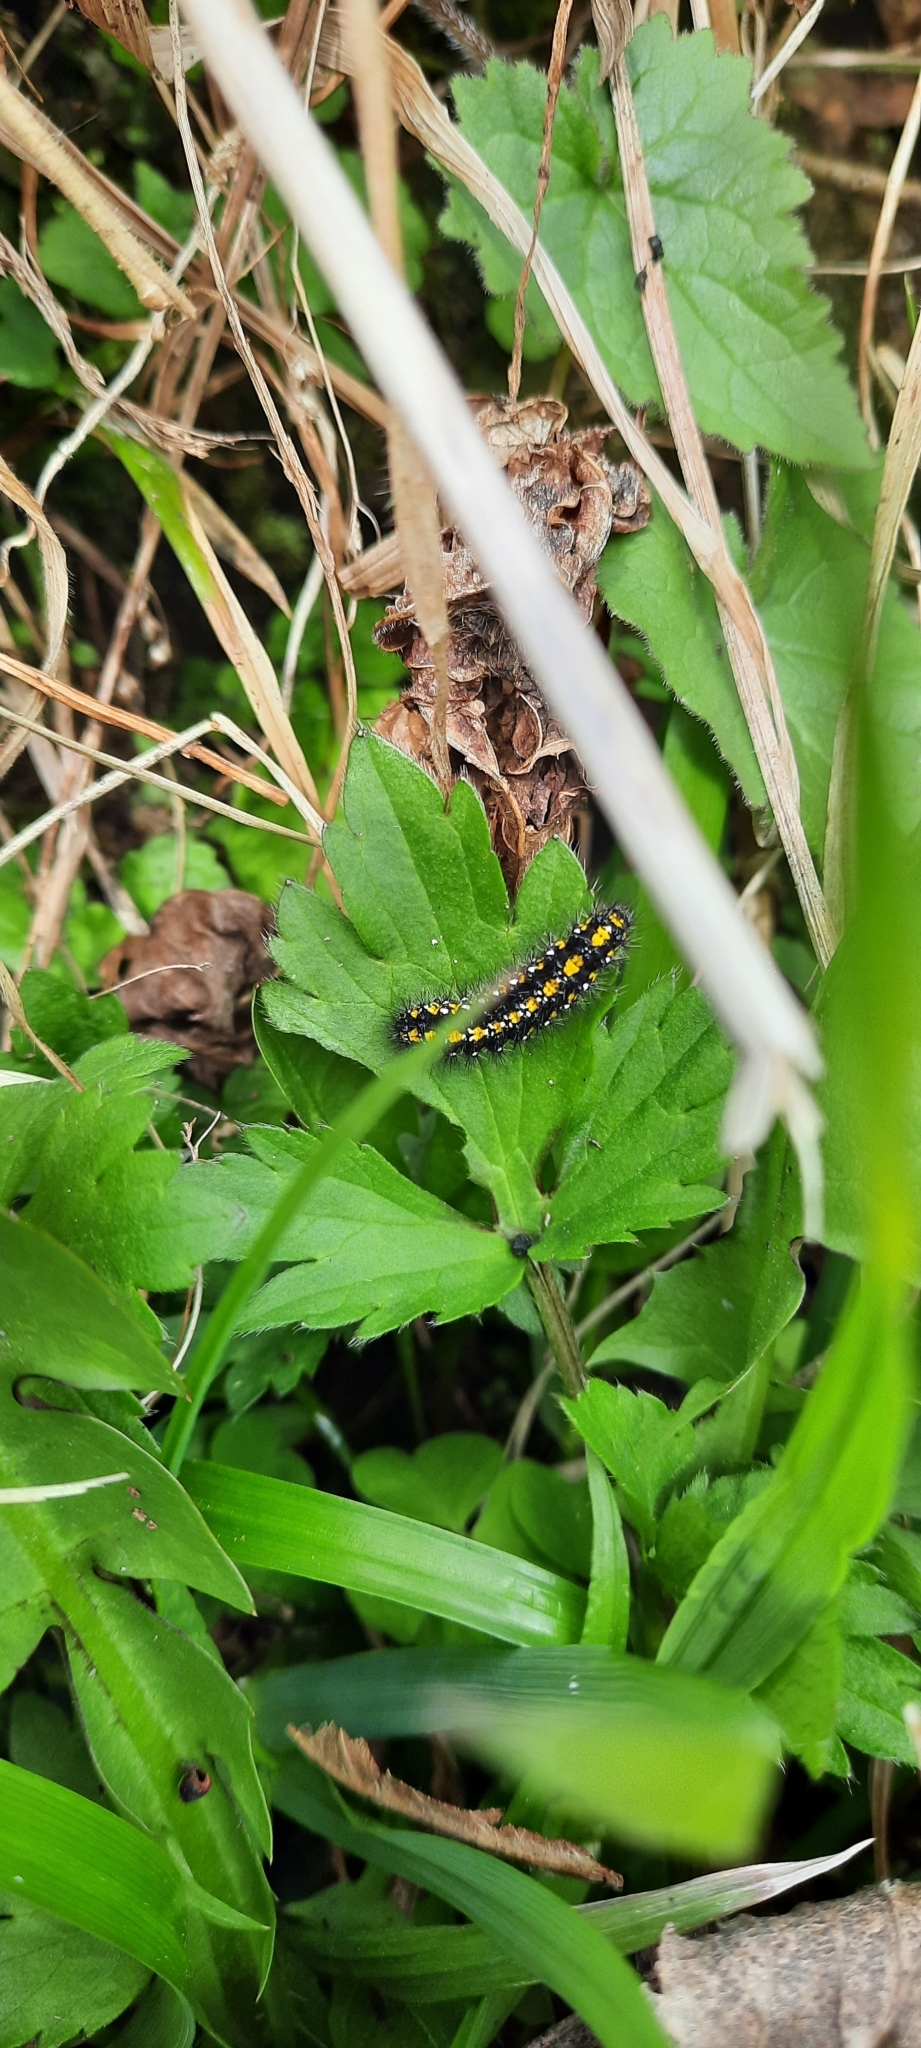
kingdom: Animalia
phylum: Arthropoda
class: Insecta
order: Lepidoptera
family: Erebidae
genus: Callimorpha
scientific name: Callimorpha dominula
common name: Scarlet tiger
